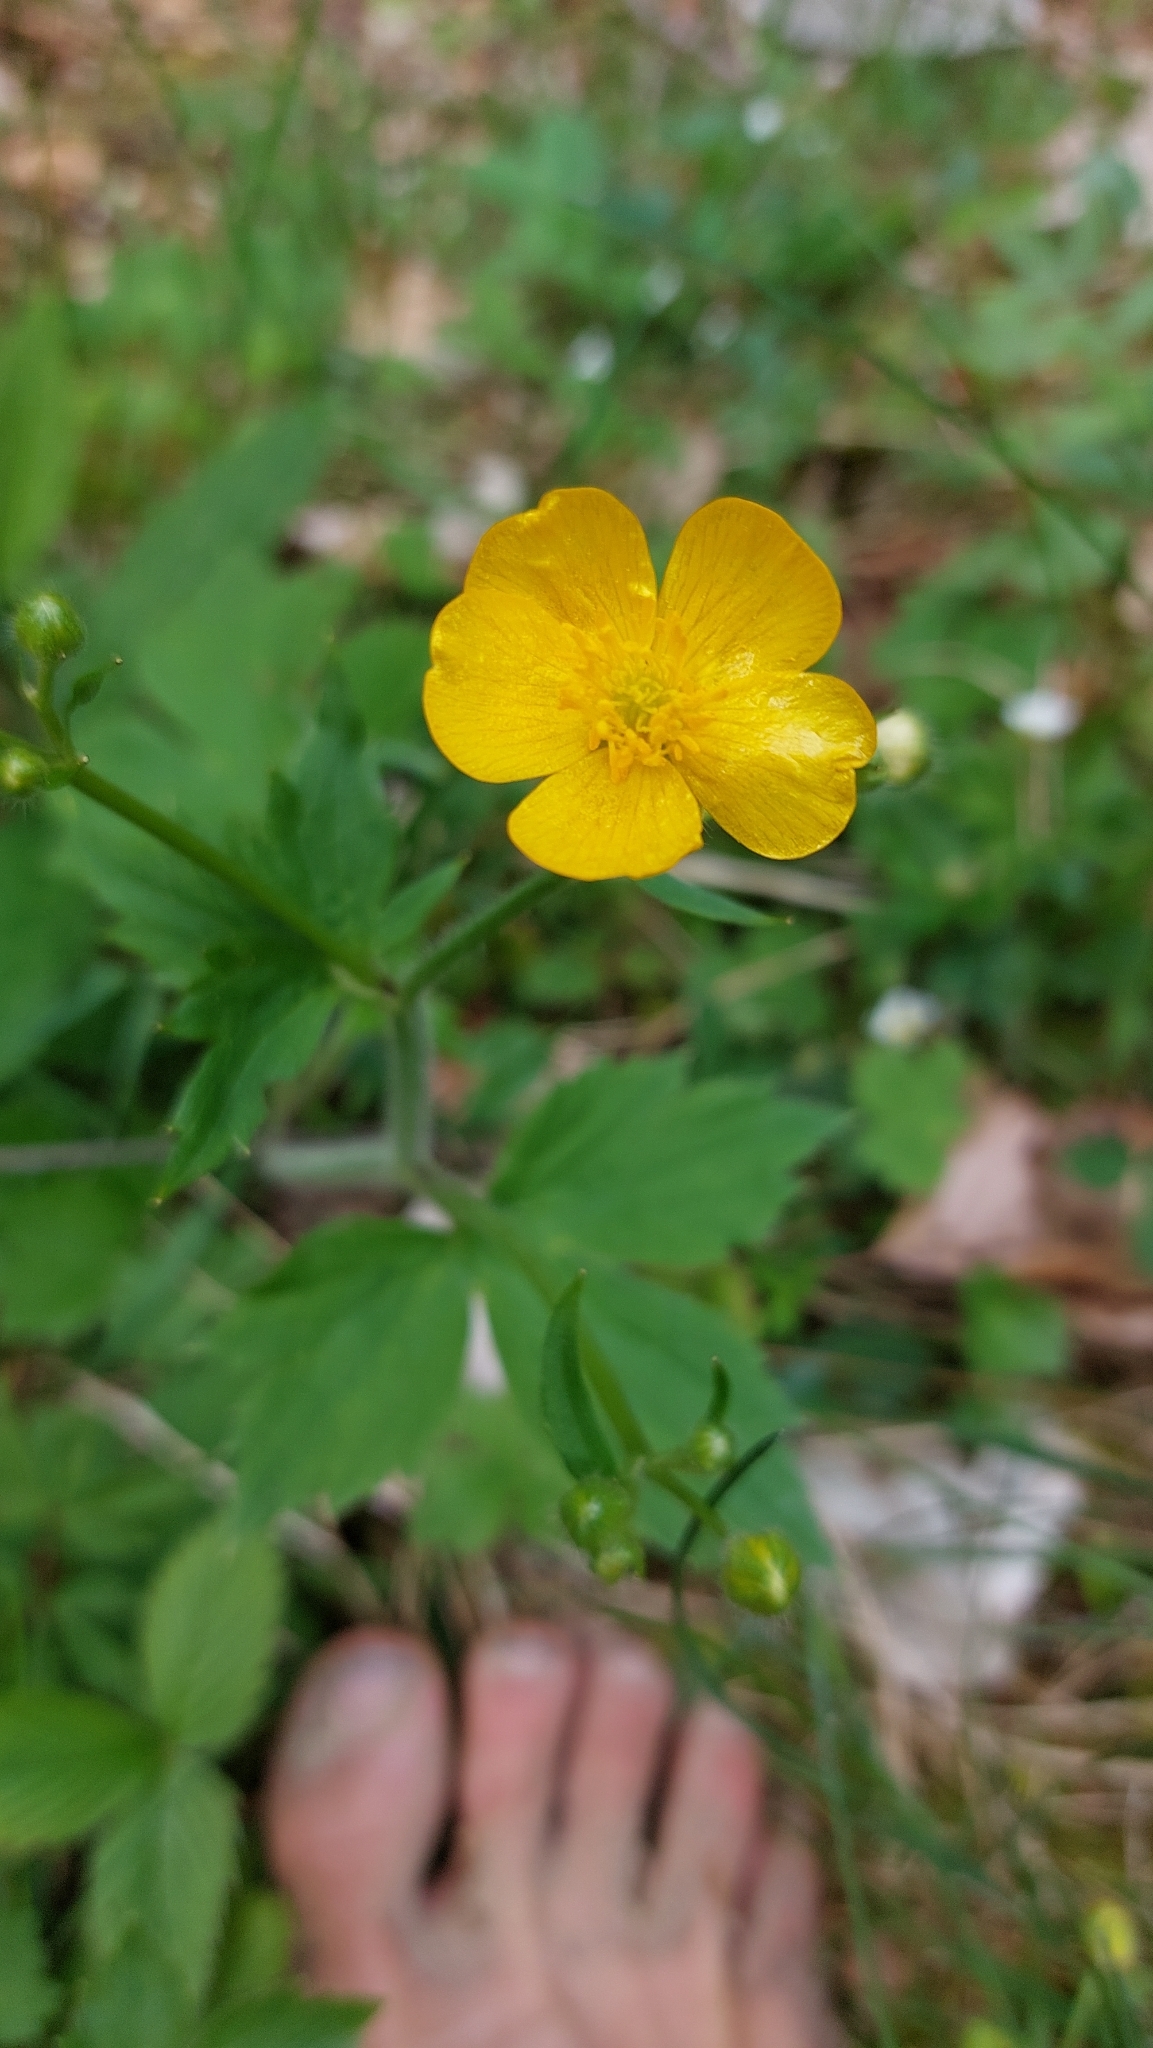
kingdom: Plantae
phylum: Tracheophyta
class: Magnoliopsida
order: Ranunculales
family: Ranunculaceae
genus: Ranunculus
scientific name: Ranunculus lanuginosus
